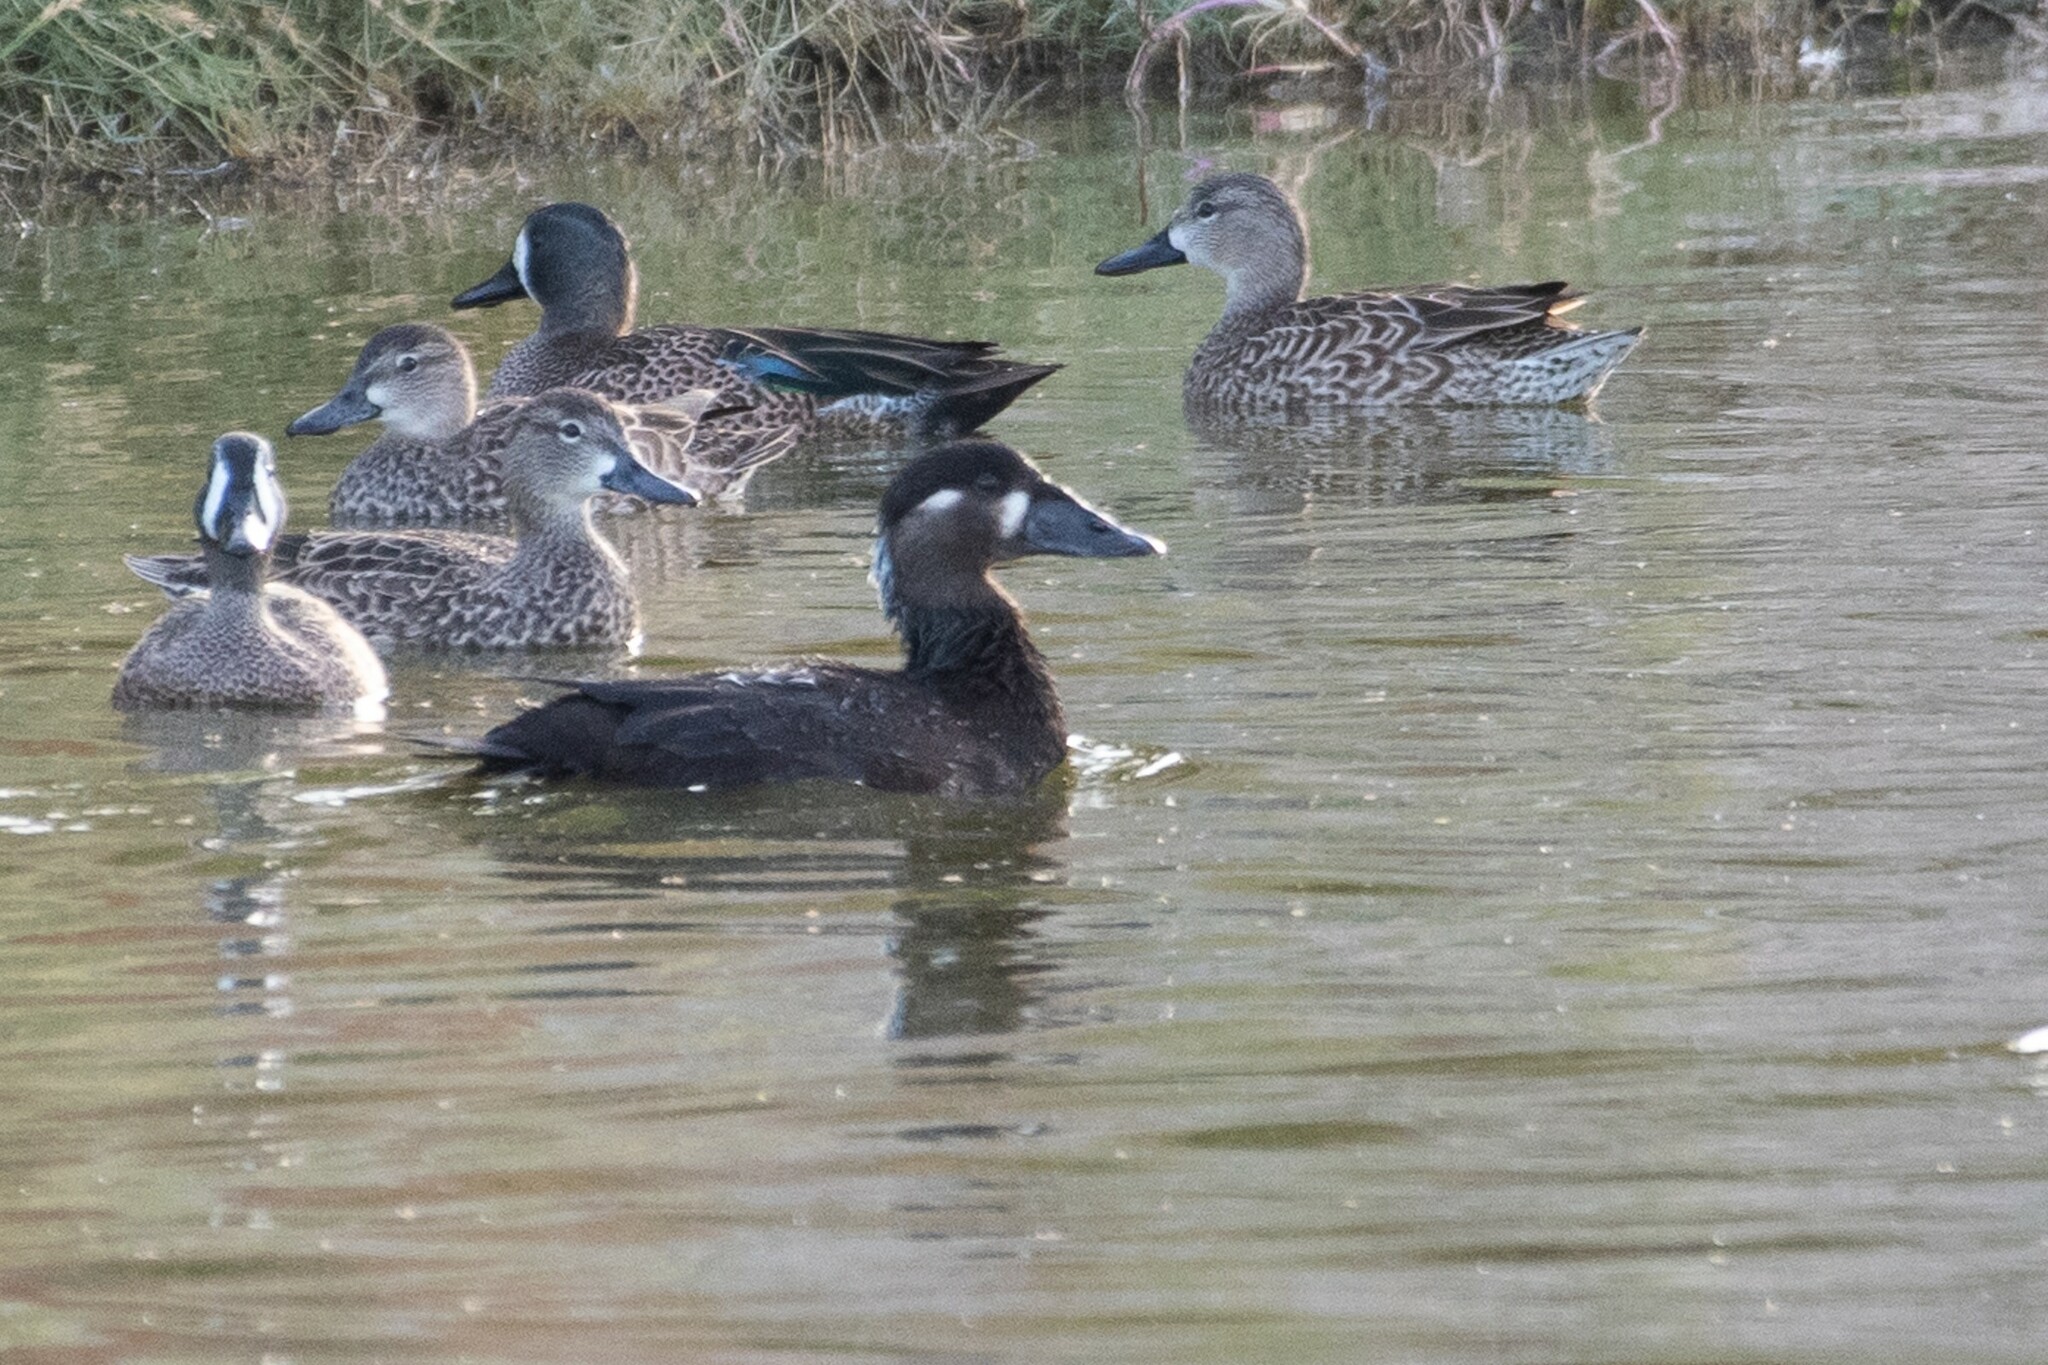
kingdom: Animalia
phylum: Chordata
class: Aves
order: Anseriformes
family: Anatidae
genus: Melanitta
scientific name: Melanitta perspicillata
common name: Surf scoter
